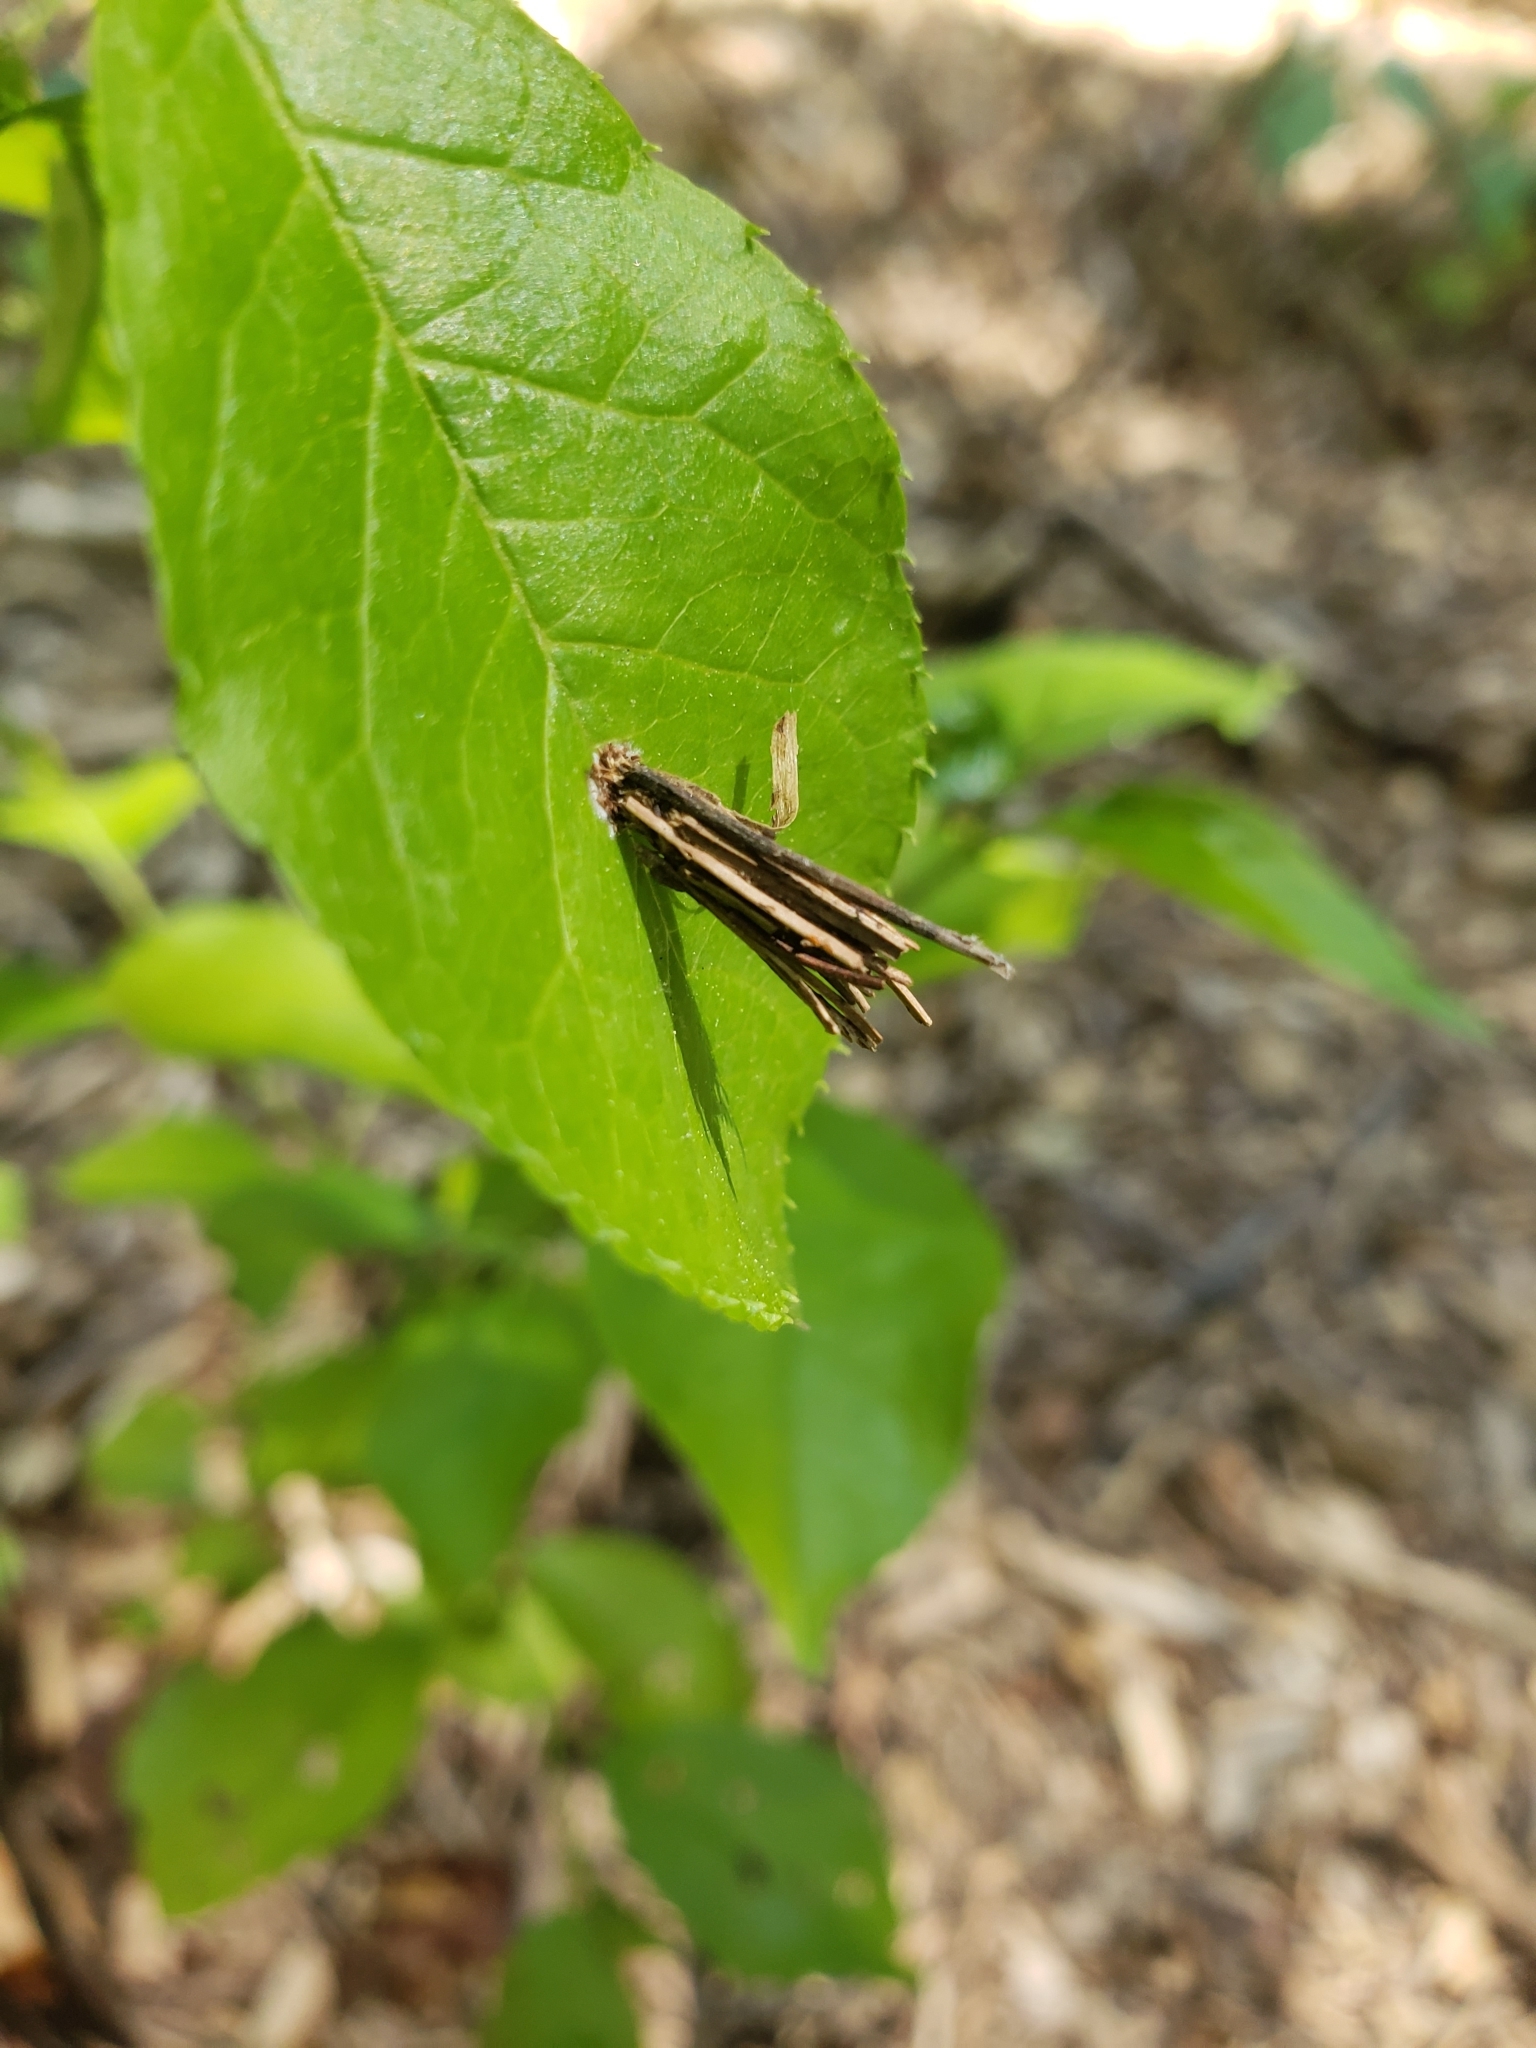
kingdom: Animalia
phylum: Arthropoda
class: Insecta
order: Lepidoptera
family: Psychidae
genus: Psyche
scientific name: Psyche casta
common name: Common sweep
